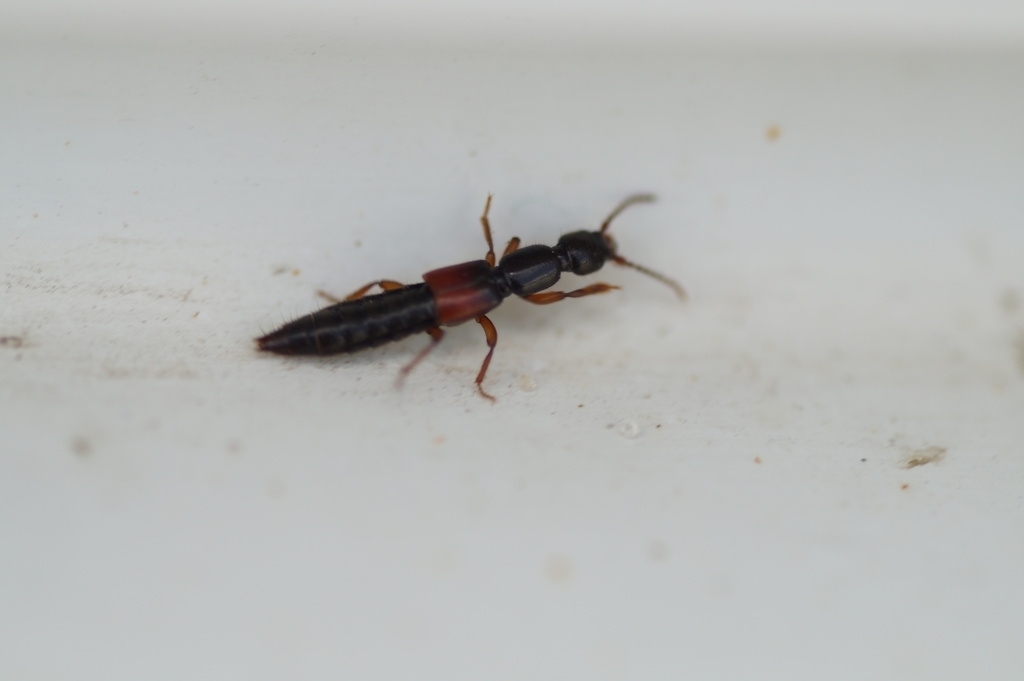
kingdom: Animalia
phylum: Arthropoda
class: Insecta
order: Coleoptera
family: Staphylinidae
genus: Lathrobium
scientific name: Lathrobium
